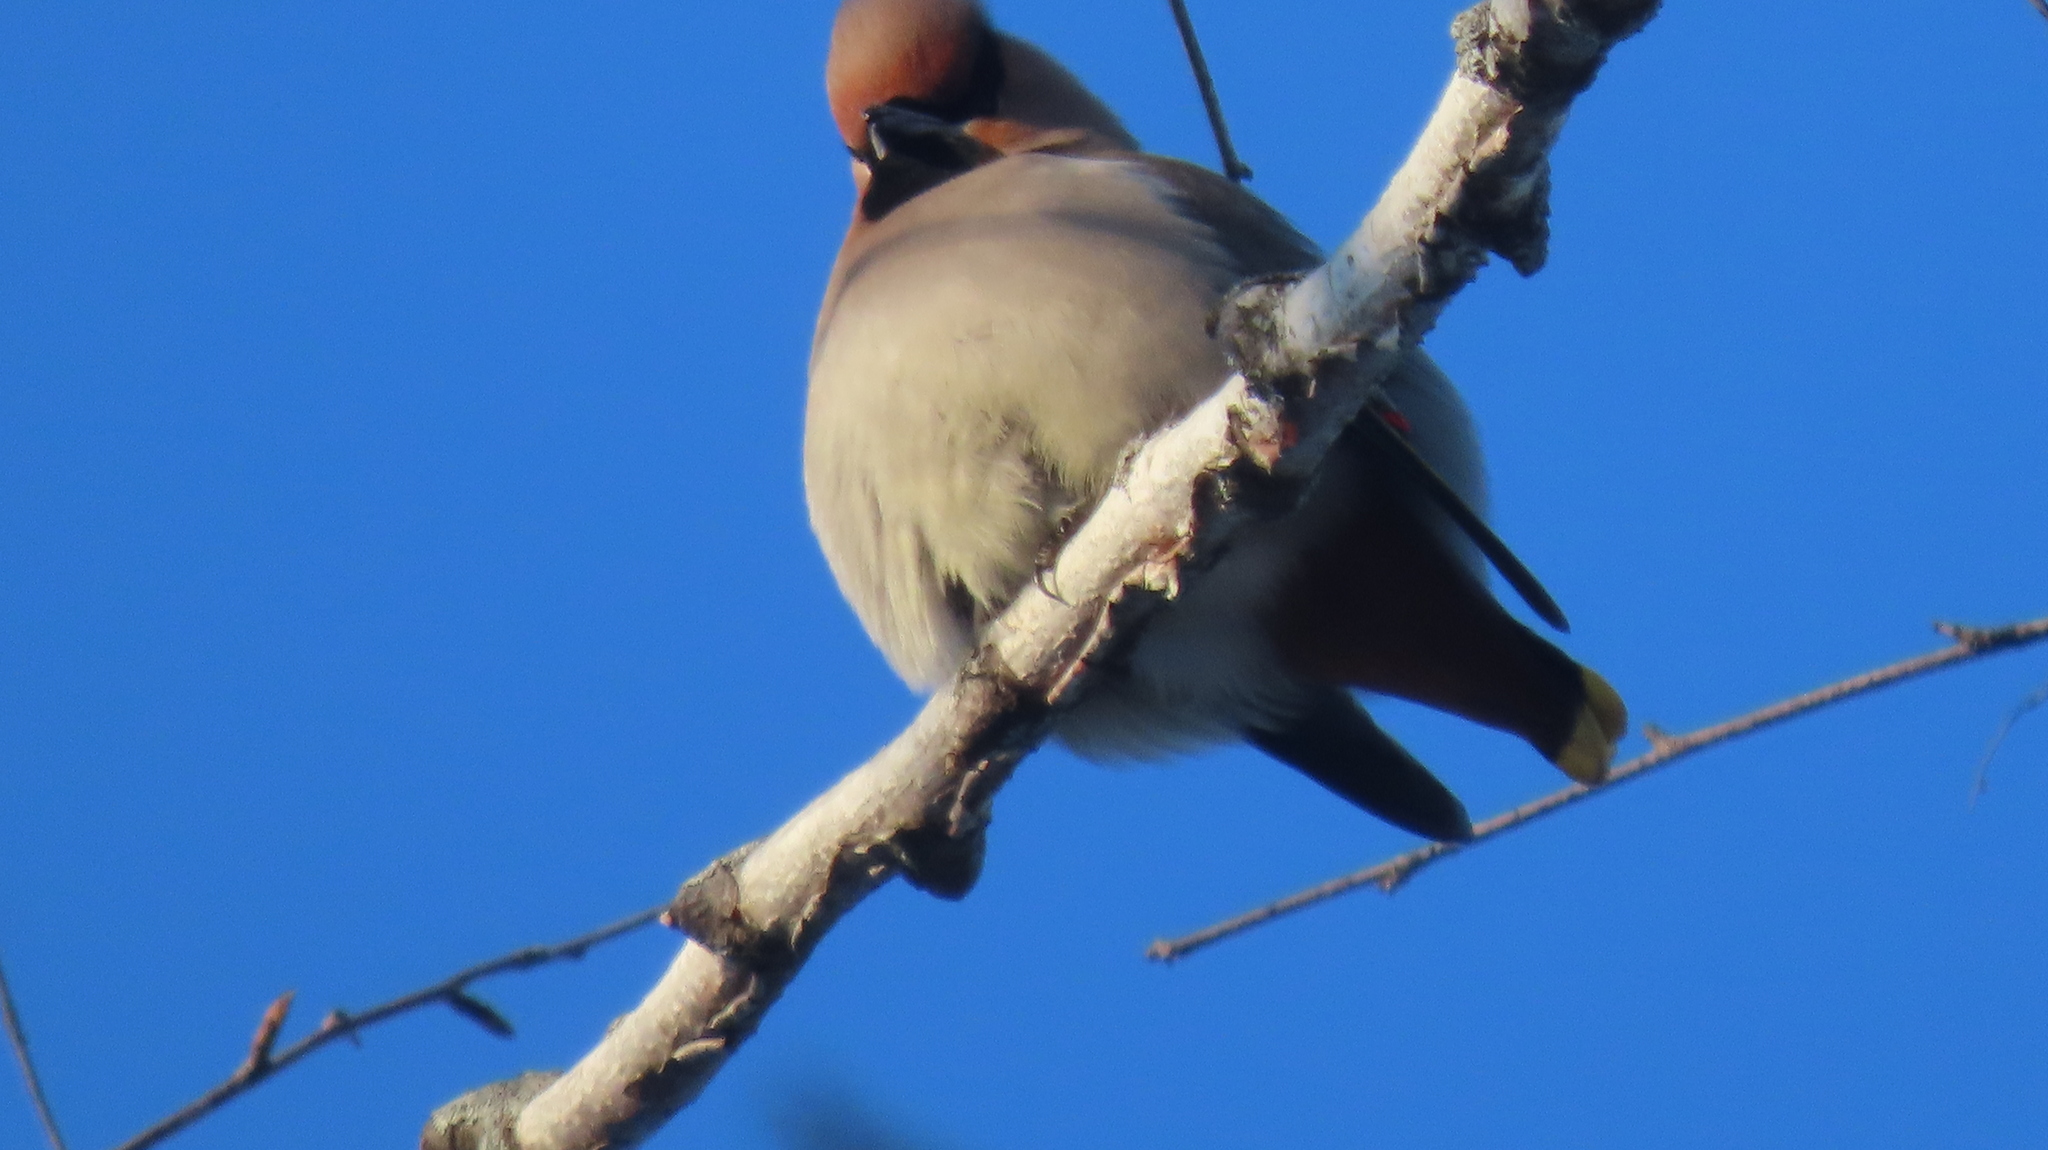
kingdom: Animalia
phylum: Chordata
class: Aves
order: Passeriformes
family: Bombycillidae
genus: Bombycilla
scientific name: Bombycilla garrulus
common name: Bohemian waxwing
